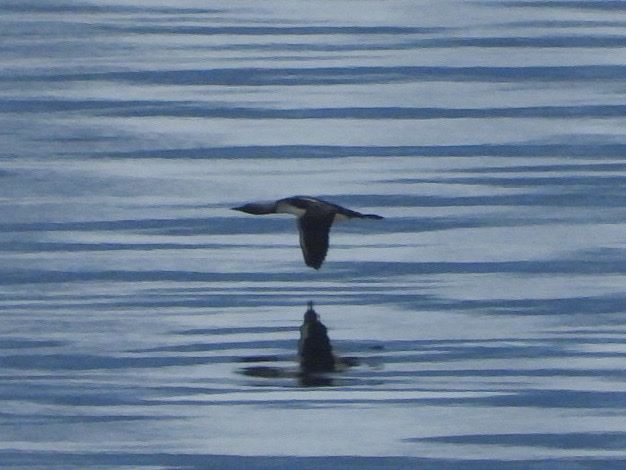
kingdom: Animalia
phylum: Chordata
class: Aves
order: Gaviiformes
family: Gaviidae
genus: Gavia
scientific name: Gavia pacifica
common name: Pacific loon
